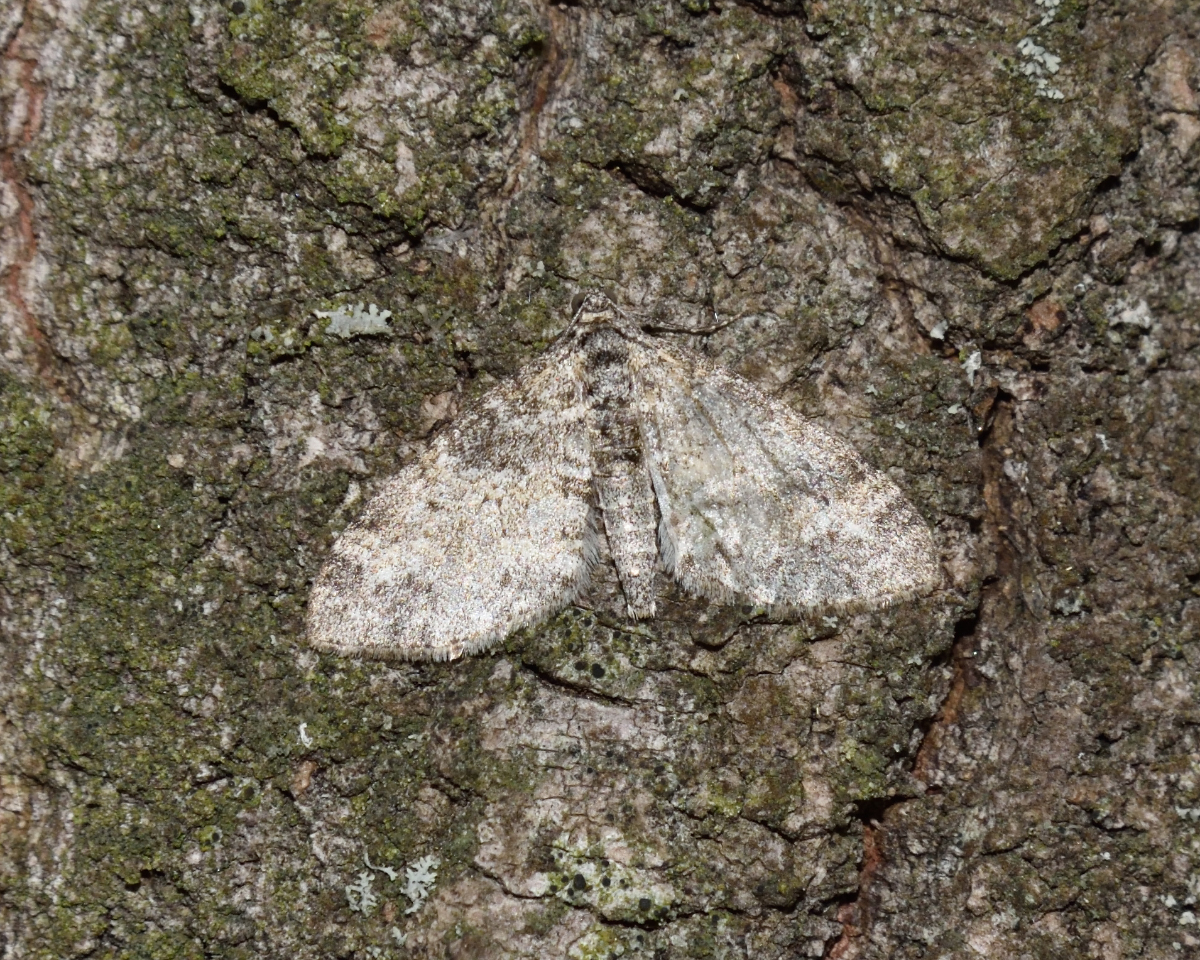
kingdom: Animalia
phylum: Arthropoda
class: Insecta
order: Lepidoptera
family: Geometridae
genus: Lobophora
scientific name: Lobophora halterata
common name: Seraphim
